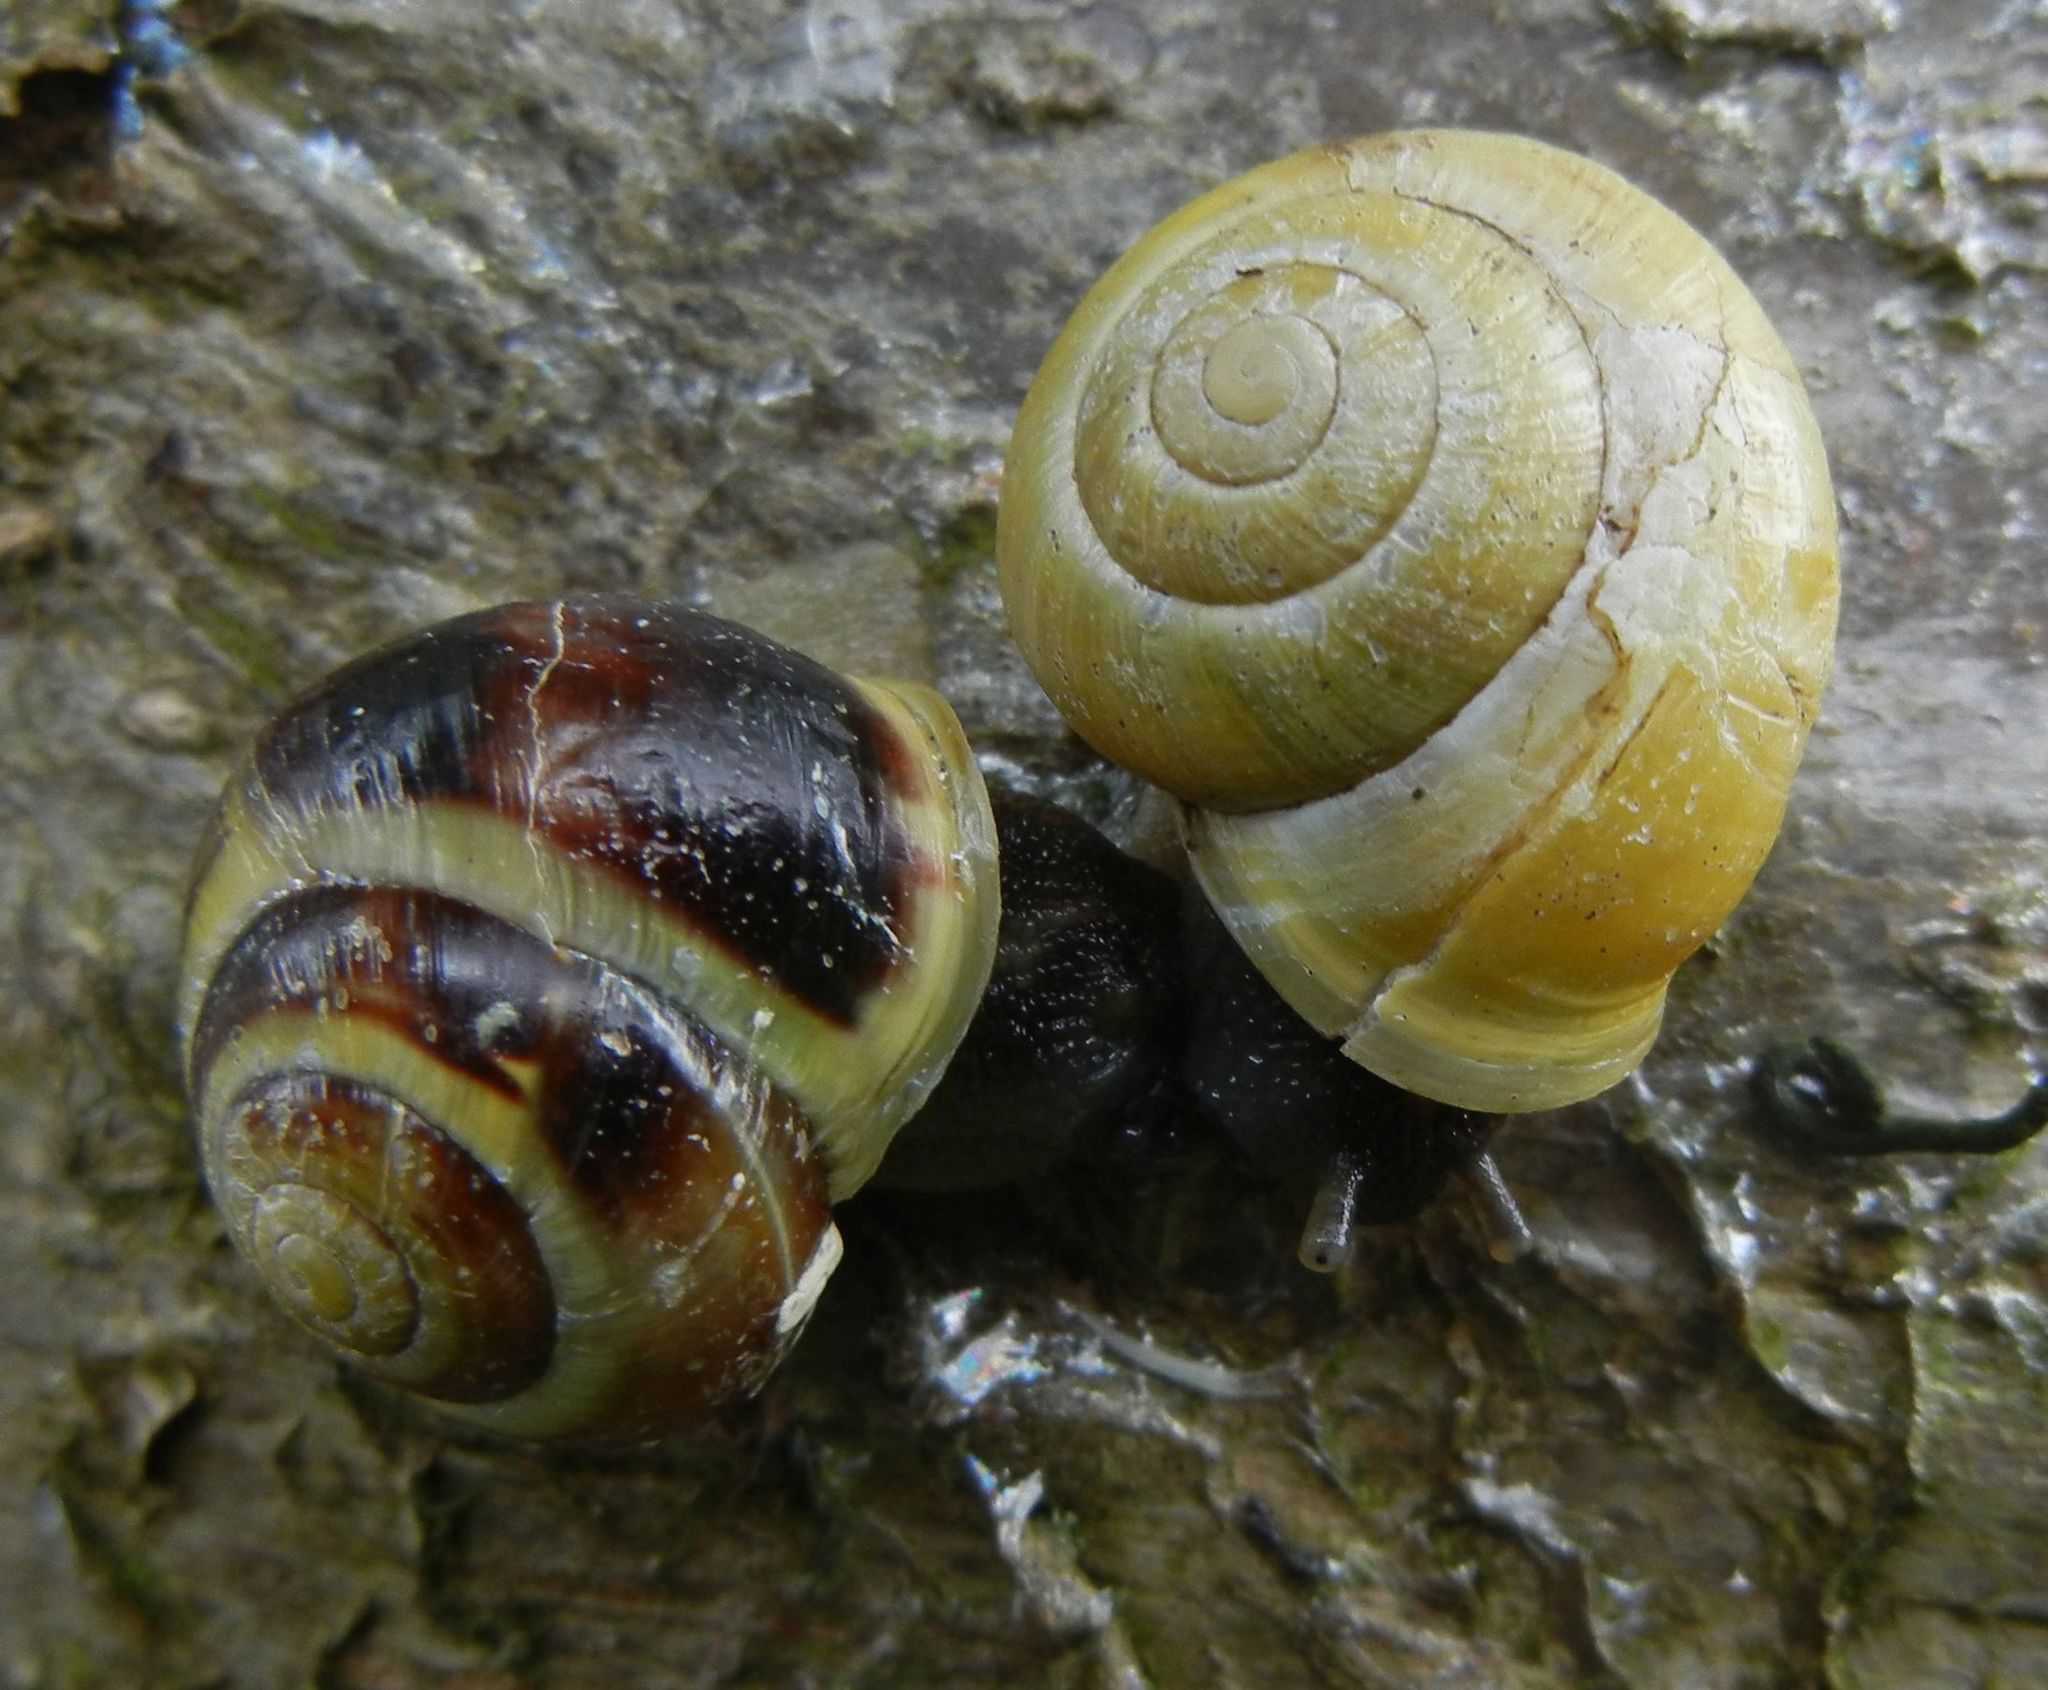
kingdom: Animalia
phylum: Mollusca
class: Gastropoda
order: Stylommatophora
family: Helicidae
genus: Cepaea
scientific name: Cepaea hortensis
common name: White-lip gardensnail
